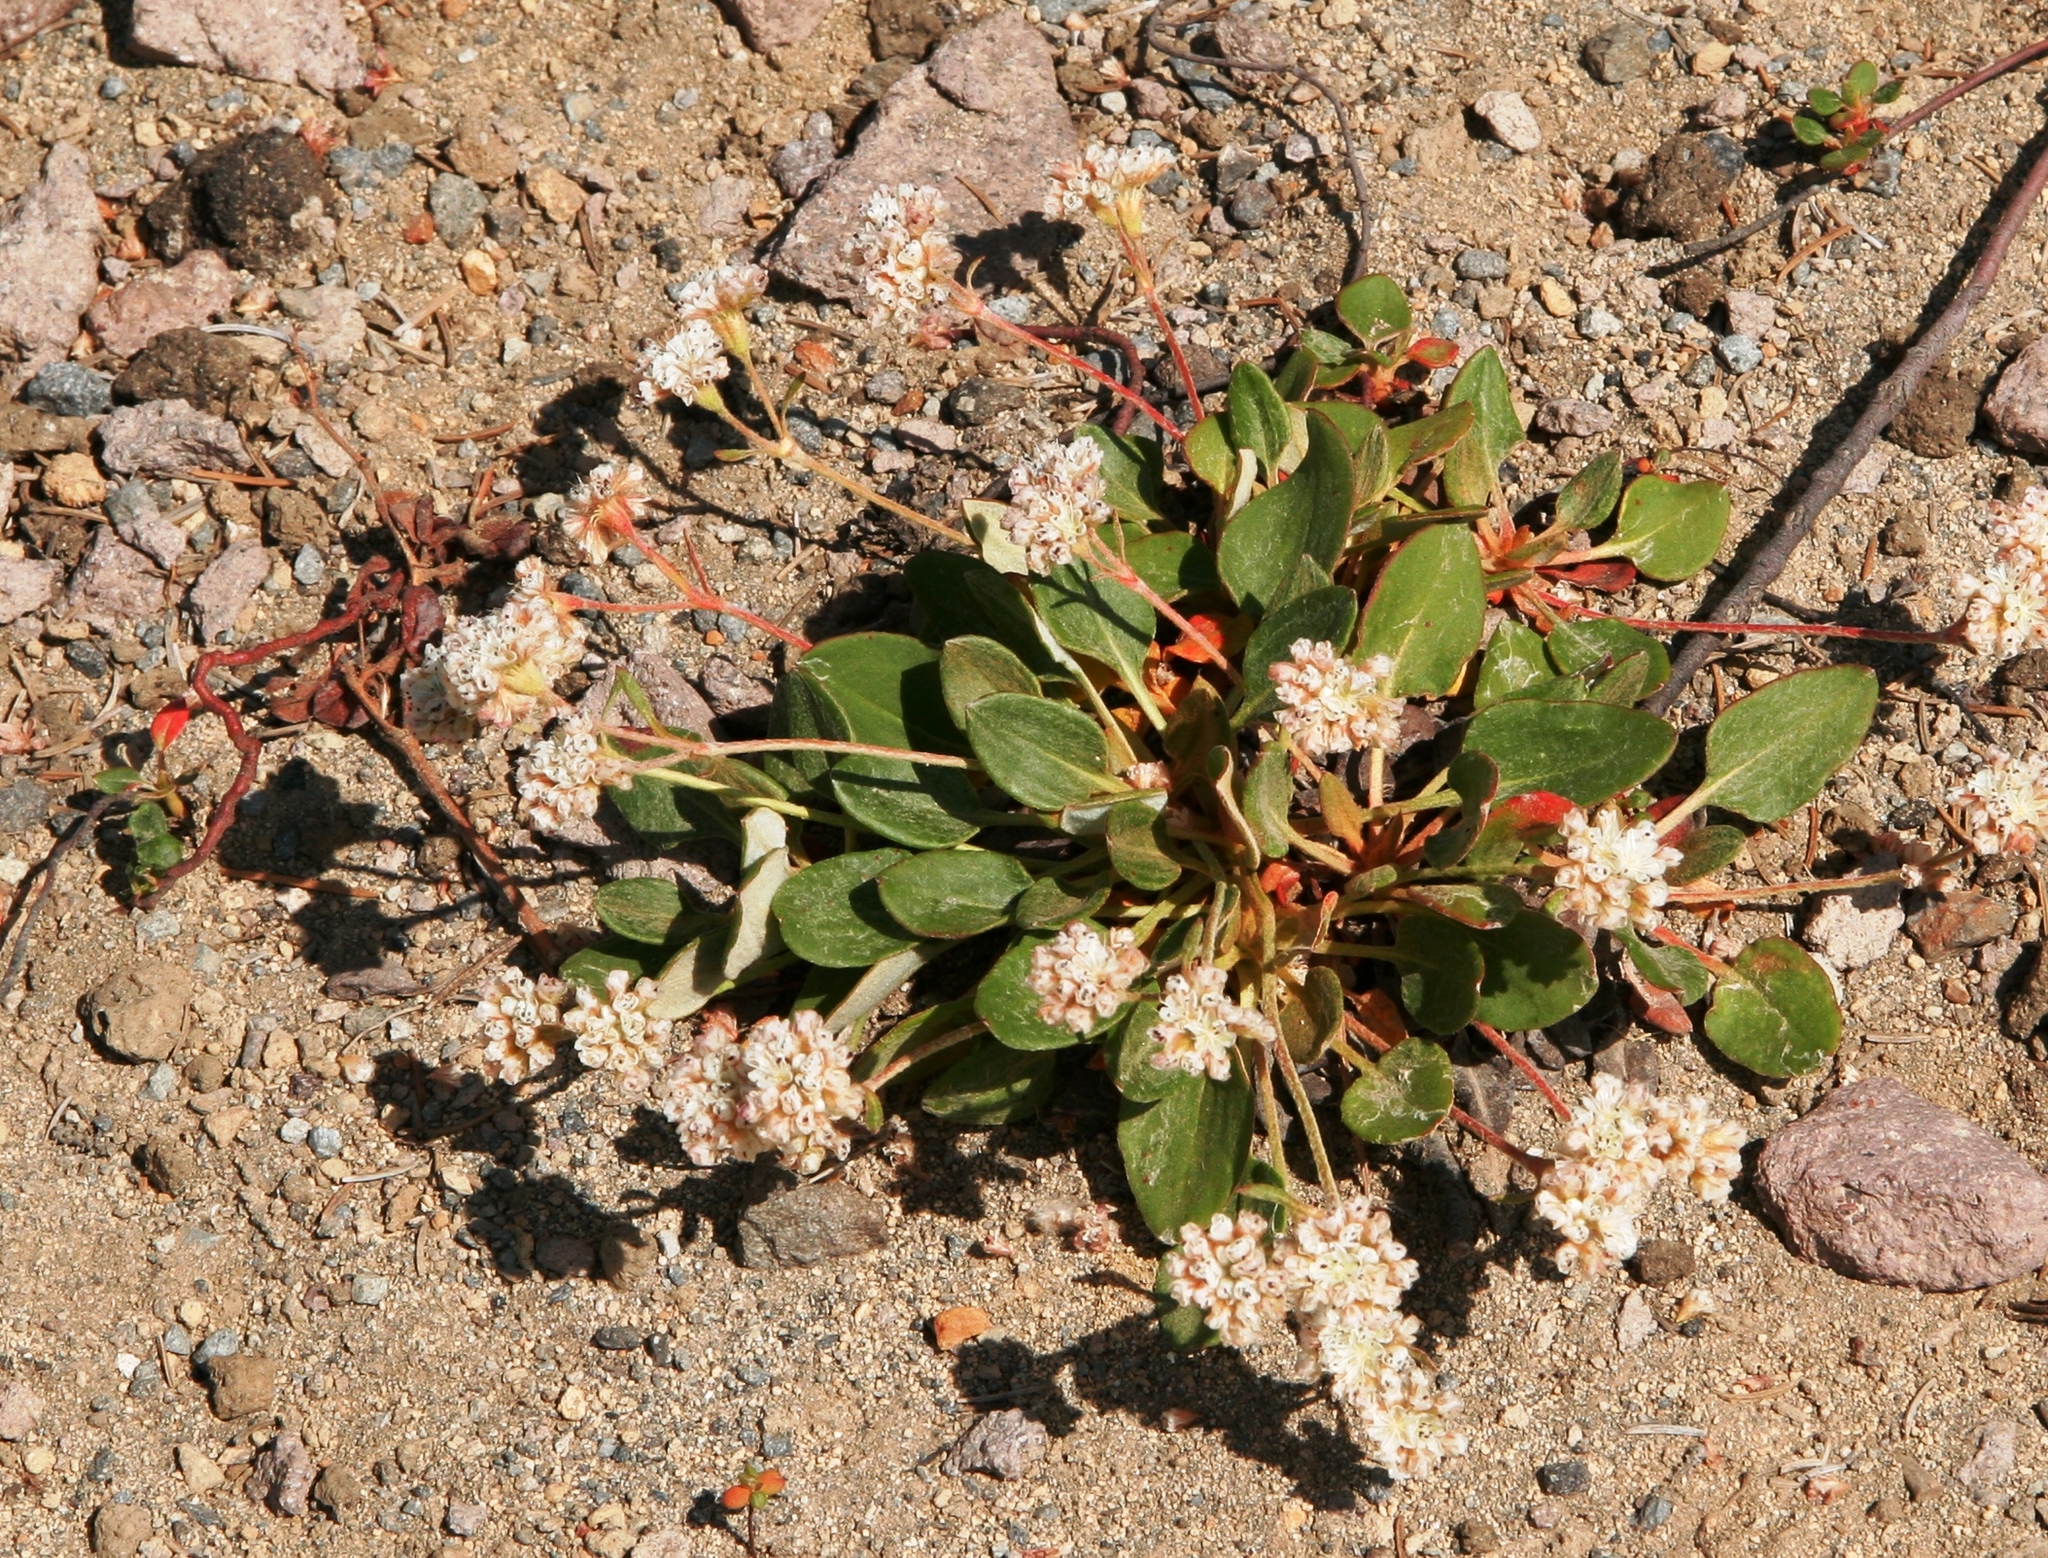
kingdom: Plantae
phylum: Tracheophyta
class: Magnoliopsida
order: Caryophyllales
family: Polygonaceae
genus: Eriogonum
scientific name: Eriogonum pyrolifolium
